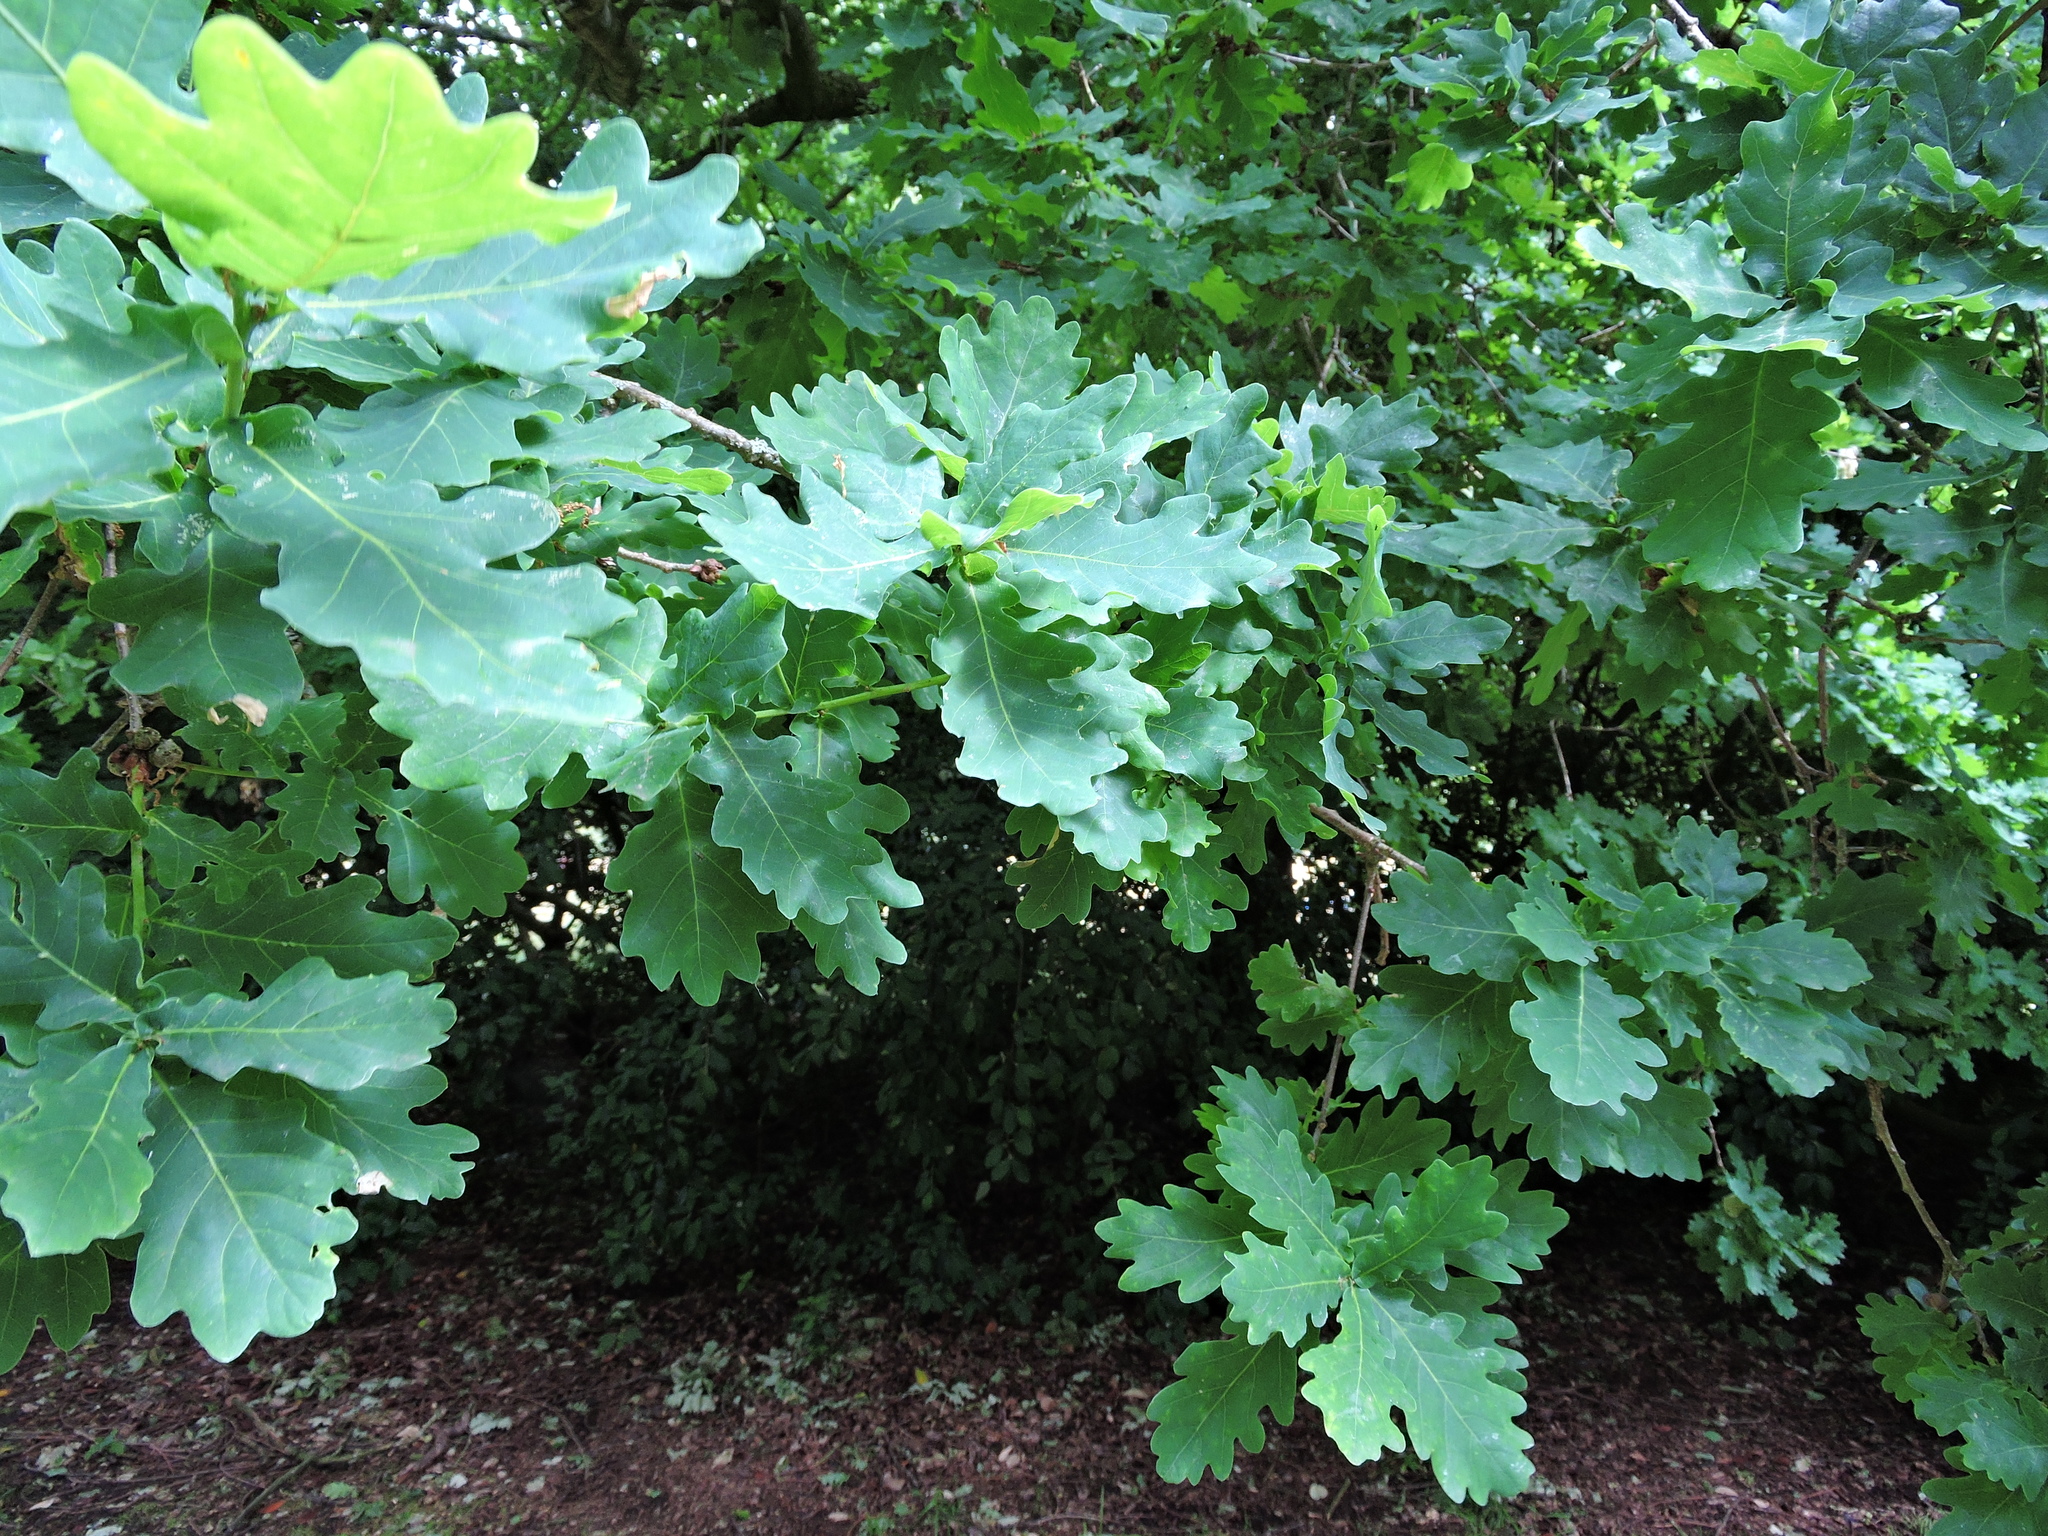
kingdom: Plantae
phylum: Tracheophyta
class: Magnoliopsida
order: Fagales
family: Fagaceae
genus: Quercus
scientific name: Quercus robur
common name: Pedunculate oak
